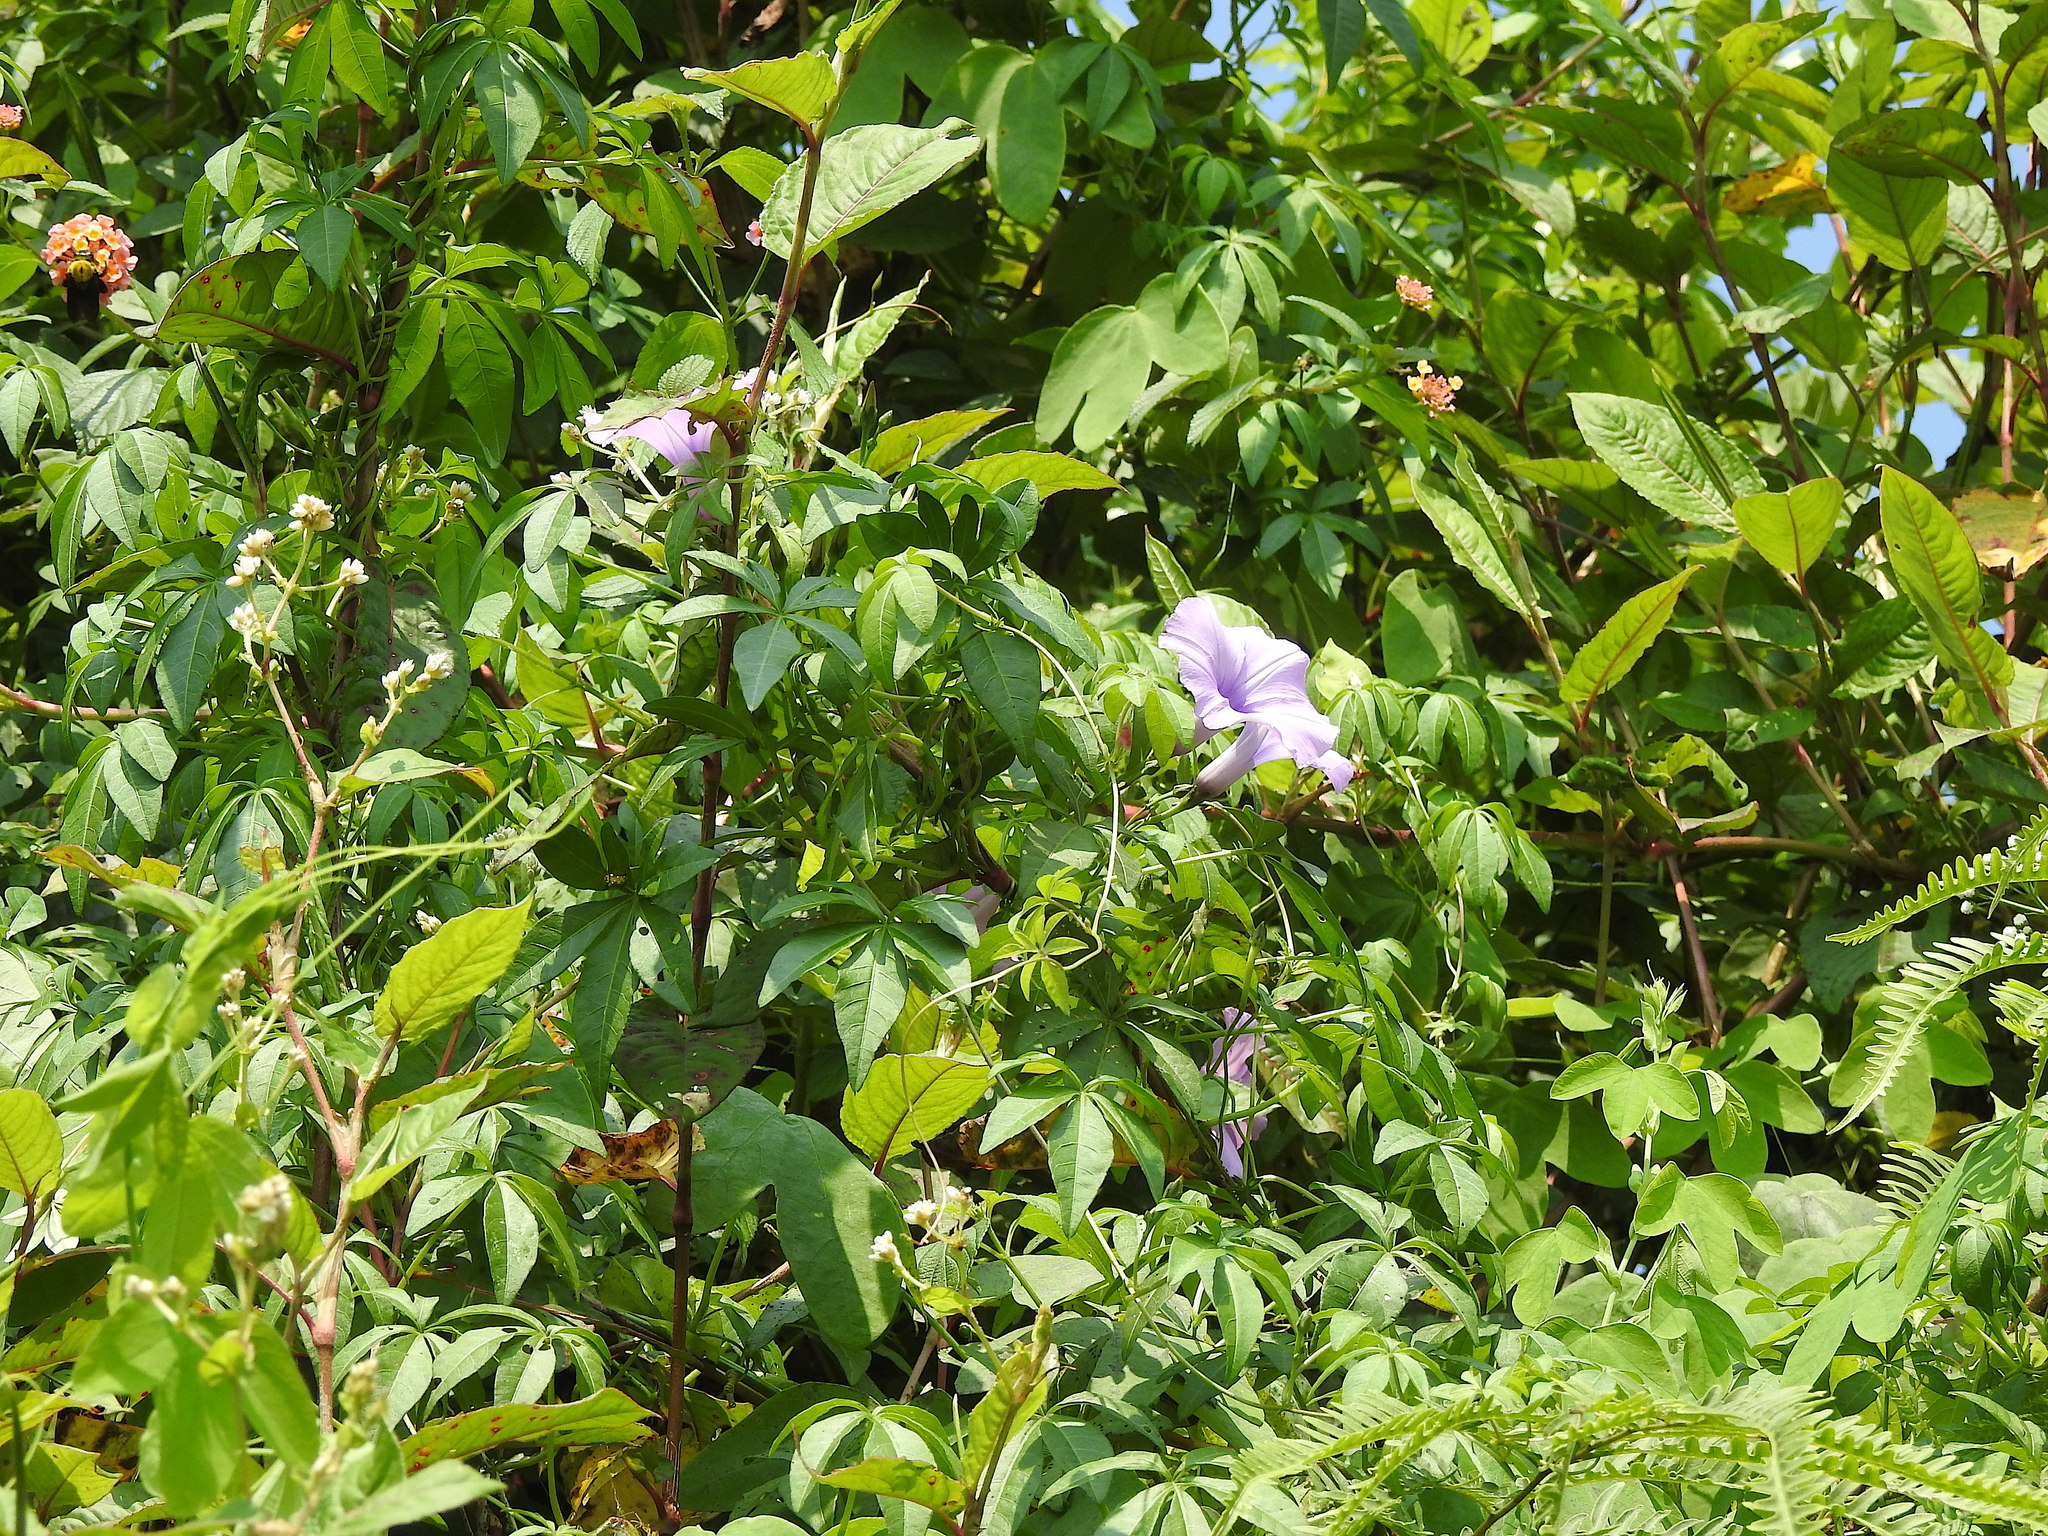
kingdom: Plantae
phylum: Tracheophyta
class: Magnoliopsida
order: Solanales
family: Convolvulaceae
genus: Ipomoea
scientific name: Ipomoea cairica
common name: Mile a minute vine
